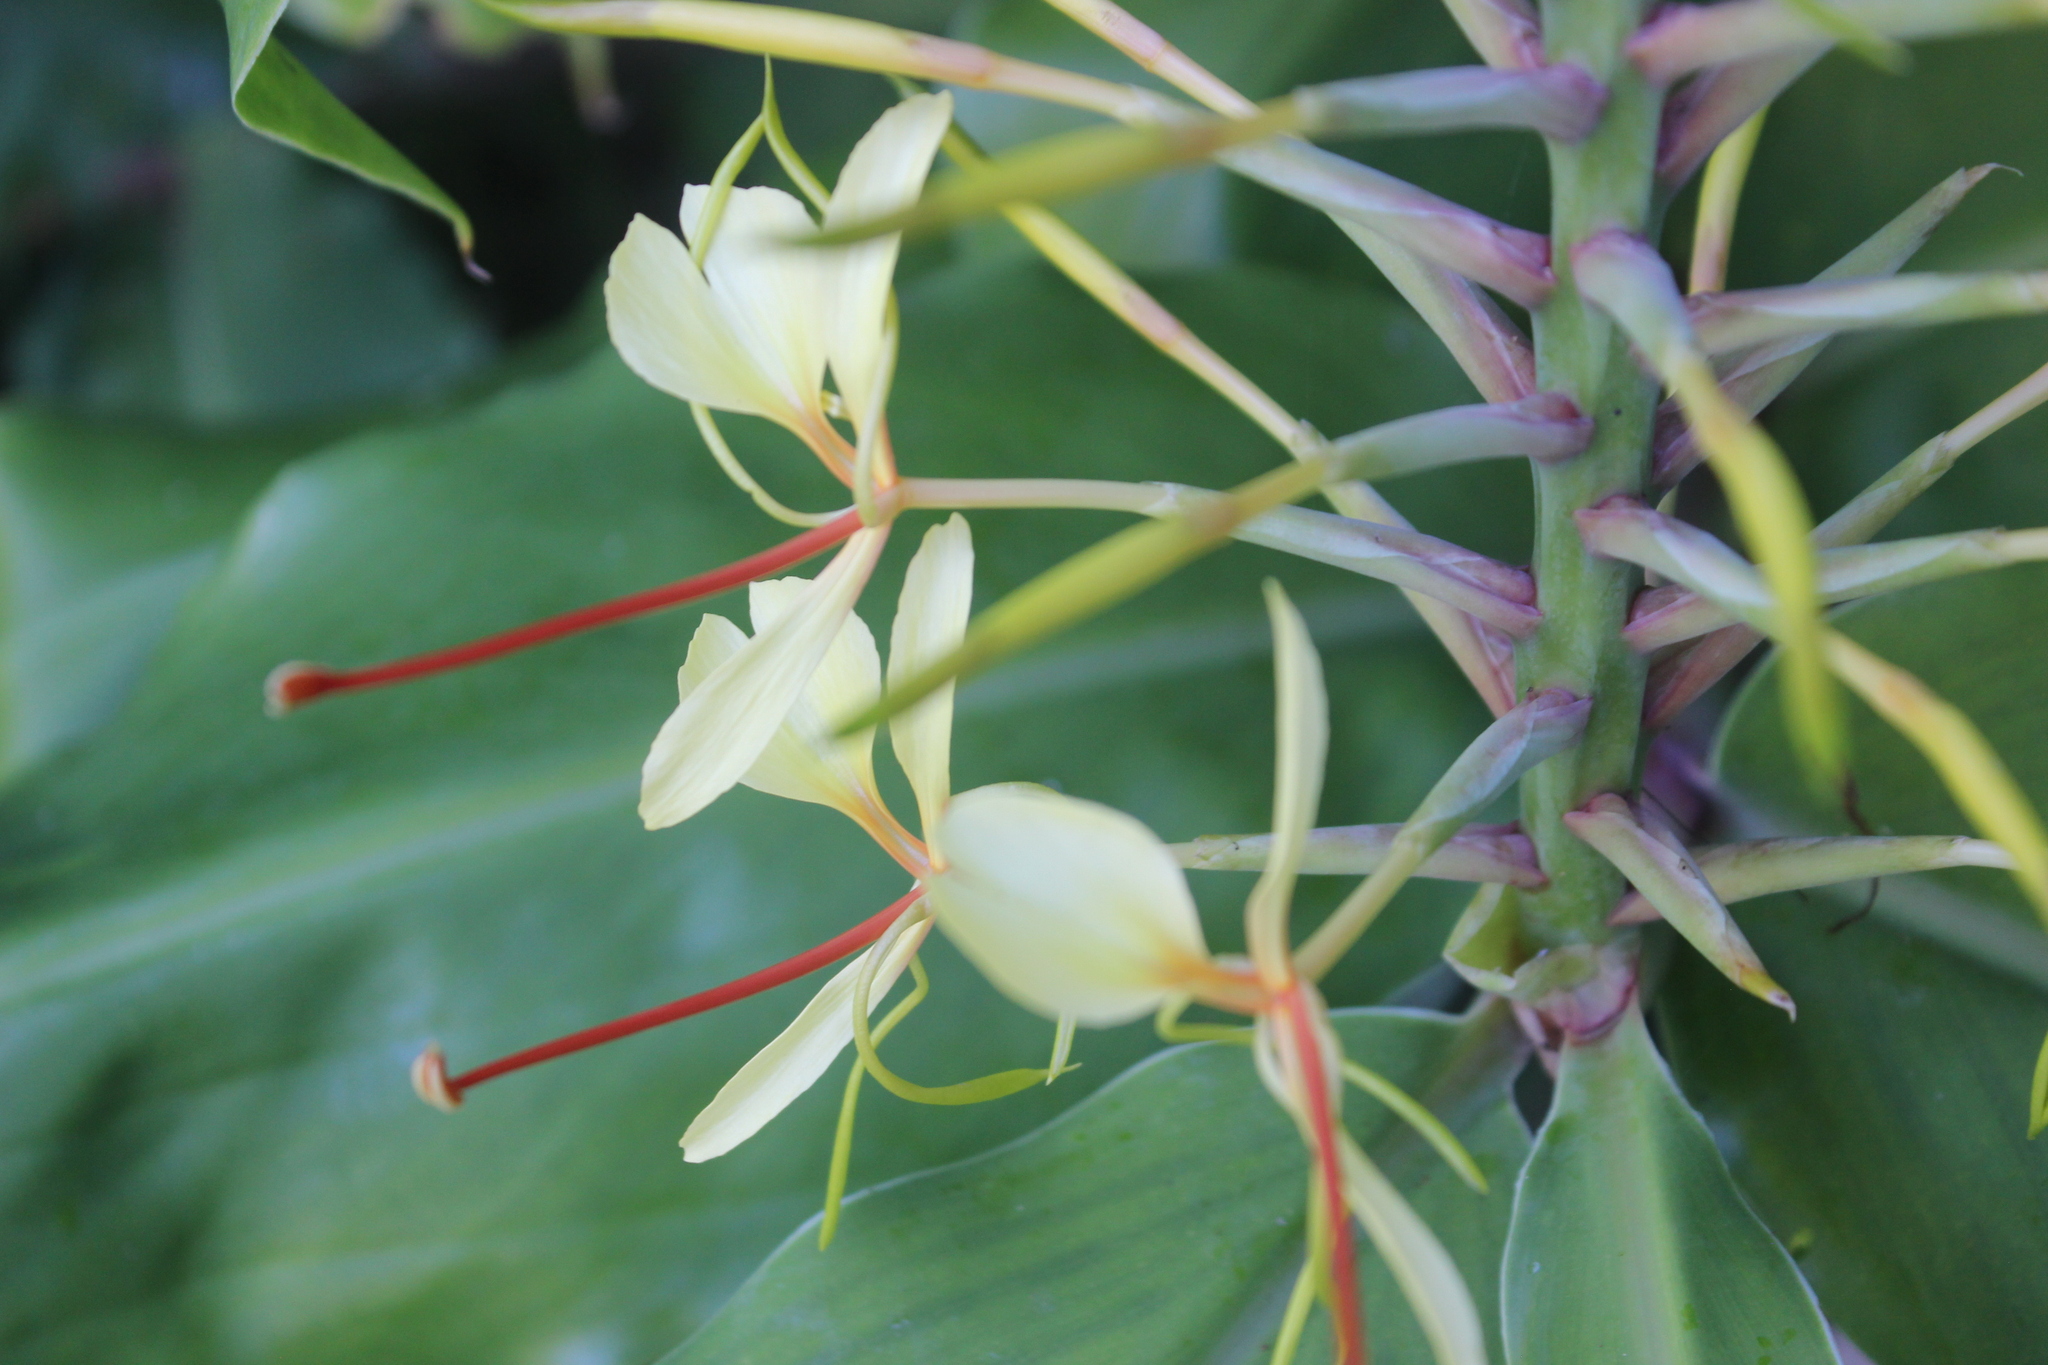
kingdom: Plantae
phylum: Tracheophyta
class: Liliopsida
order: Zingiberales
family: Zingiberaceae
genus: Hedychium
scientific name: Hedychium gardnerianum
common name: Himalayan ginger
